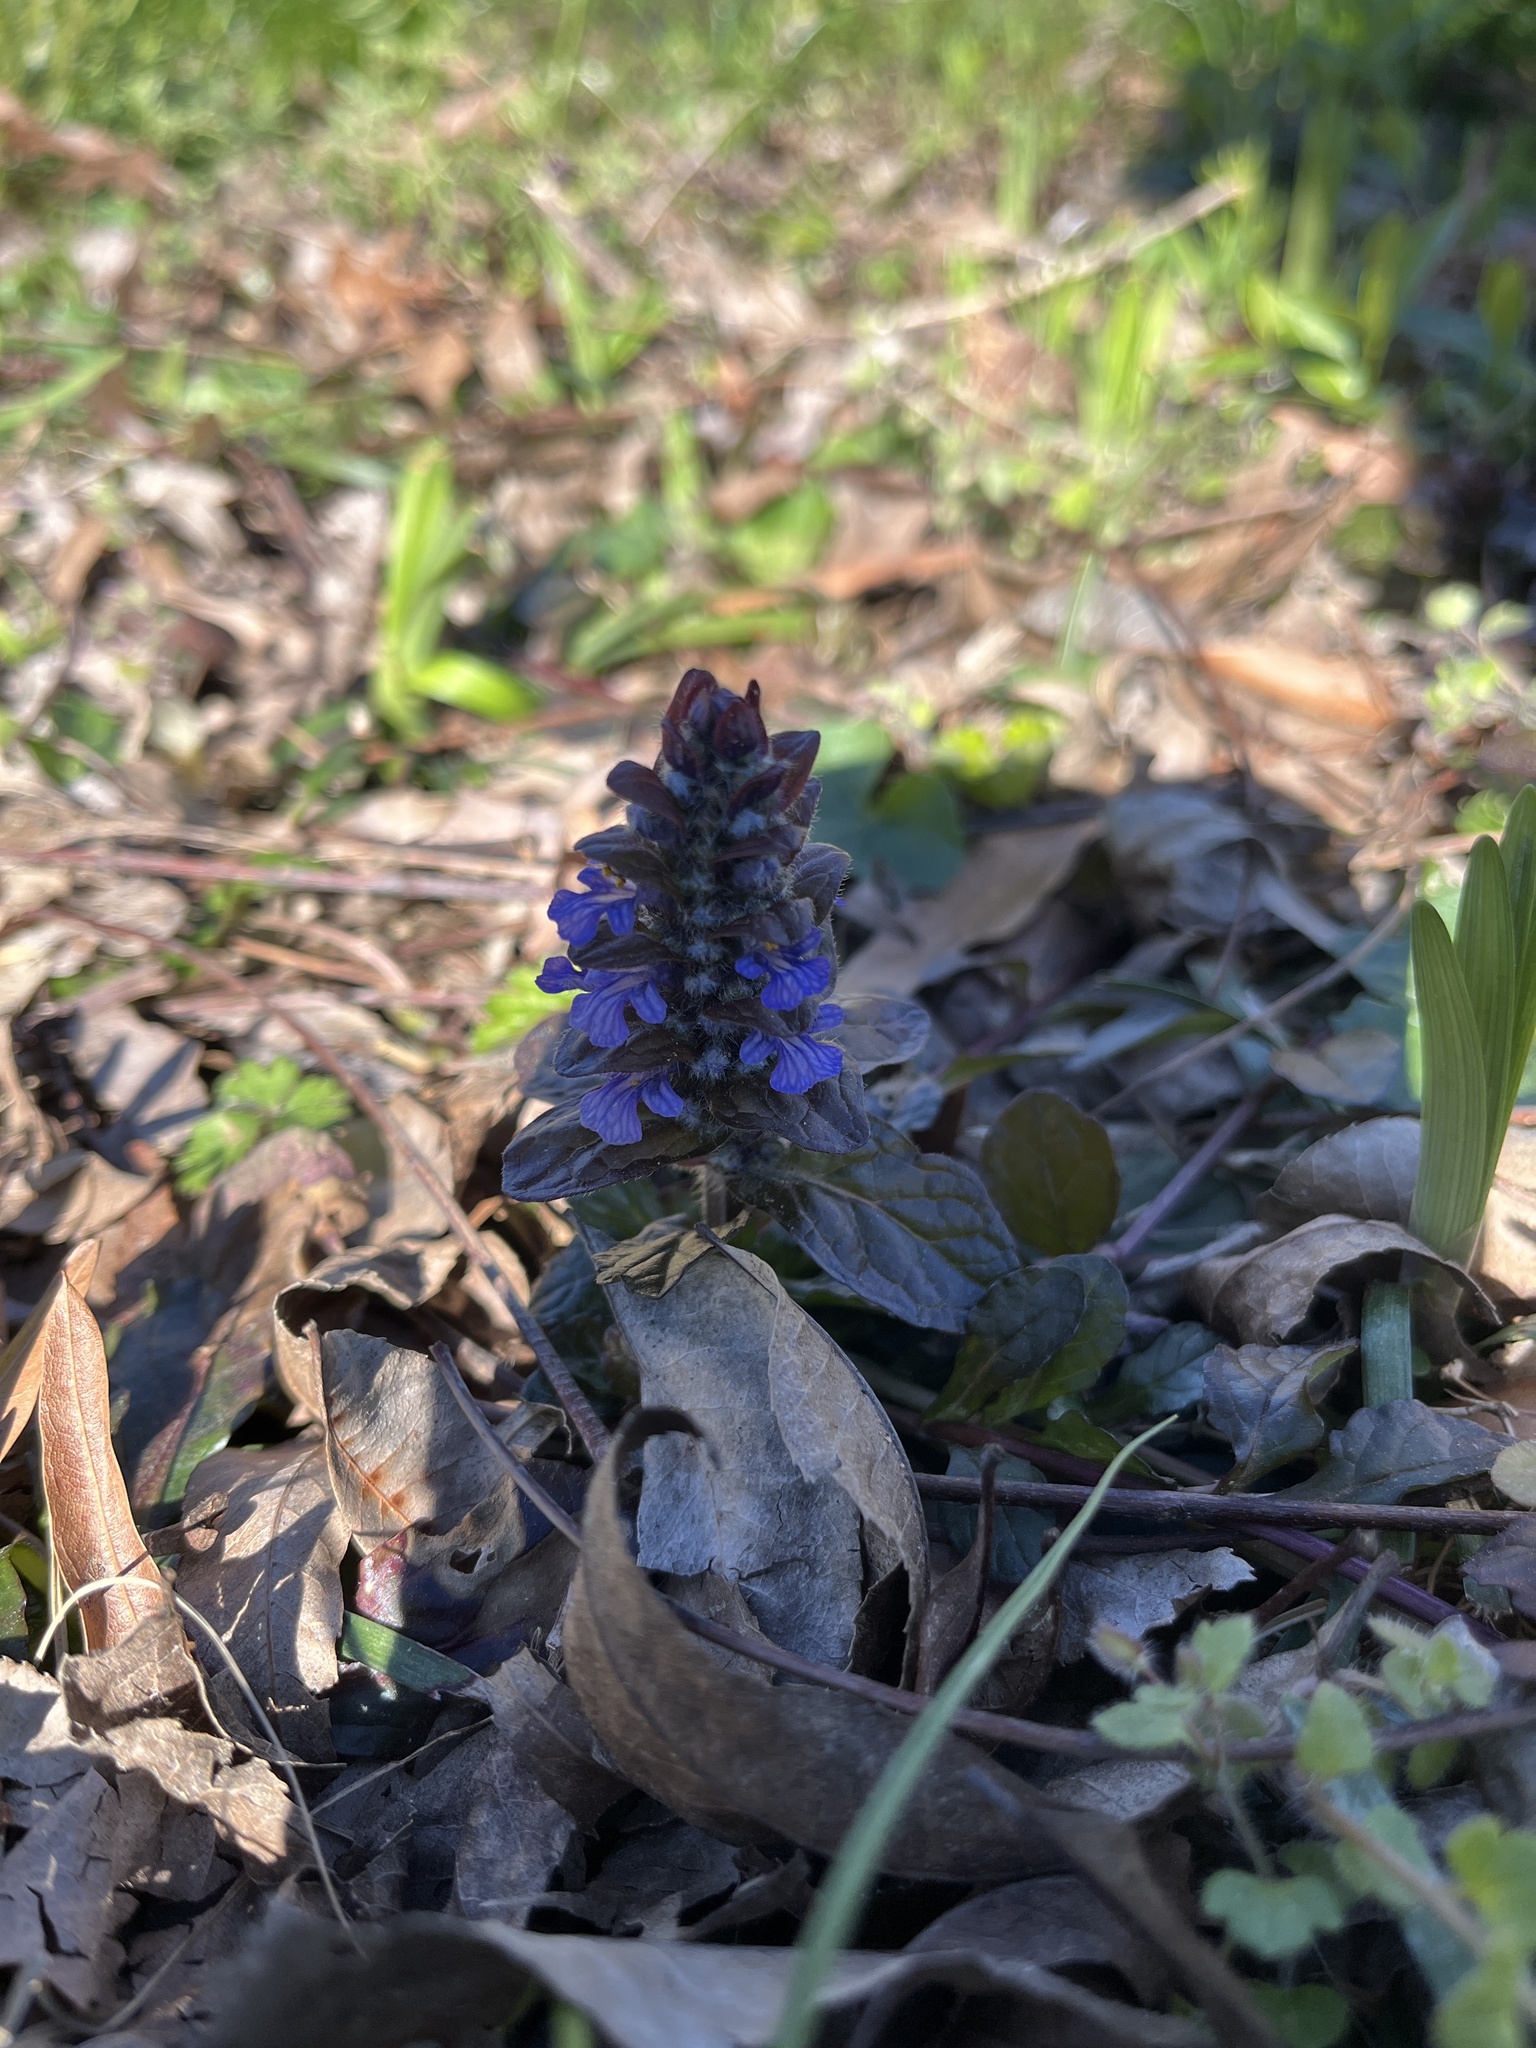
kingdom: Plantae
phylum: Tracheophyta
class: Magnoliopsida
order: Lamiales
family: Lamiaceae
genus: Ajuga
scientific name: Ajuga reptans
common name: Bugle
